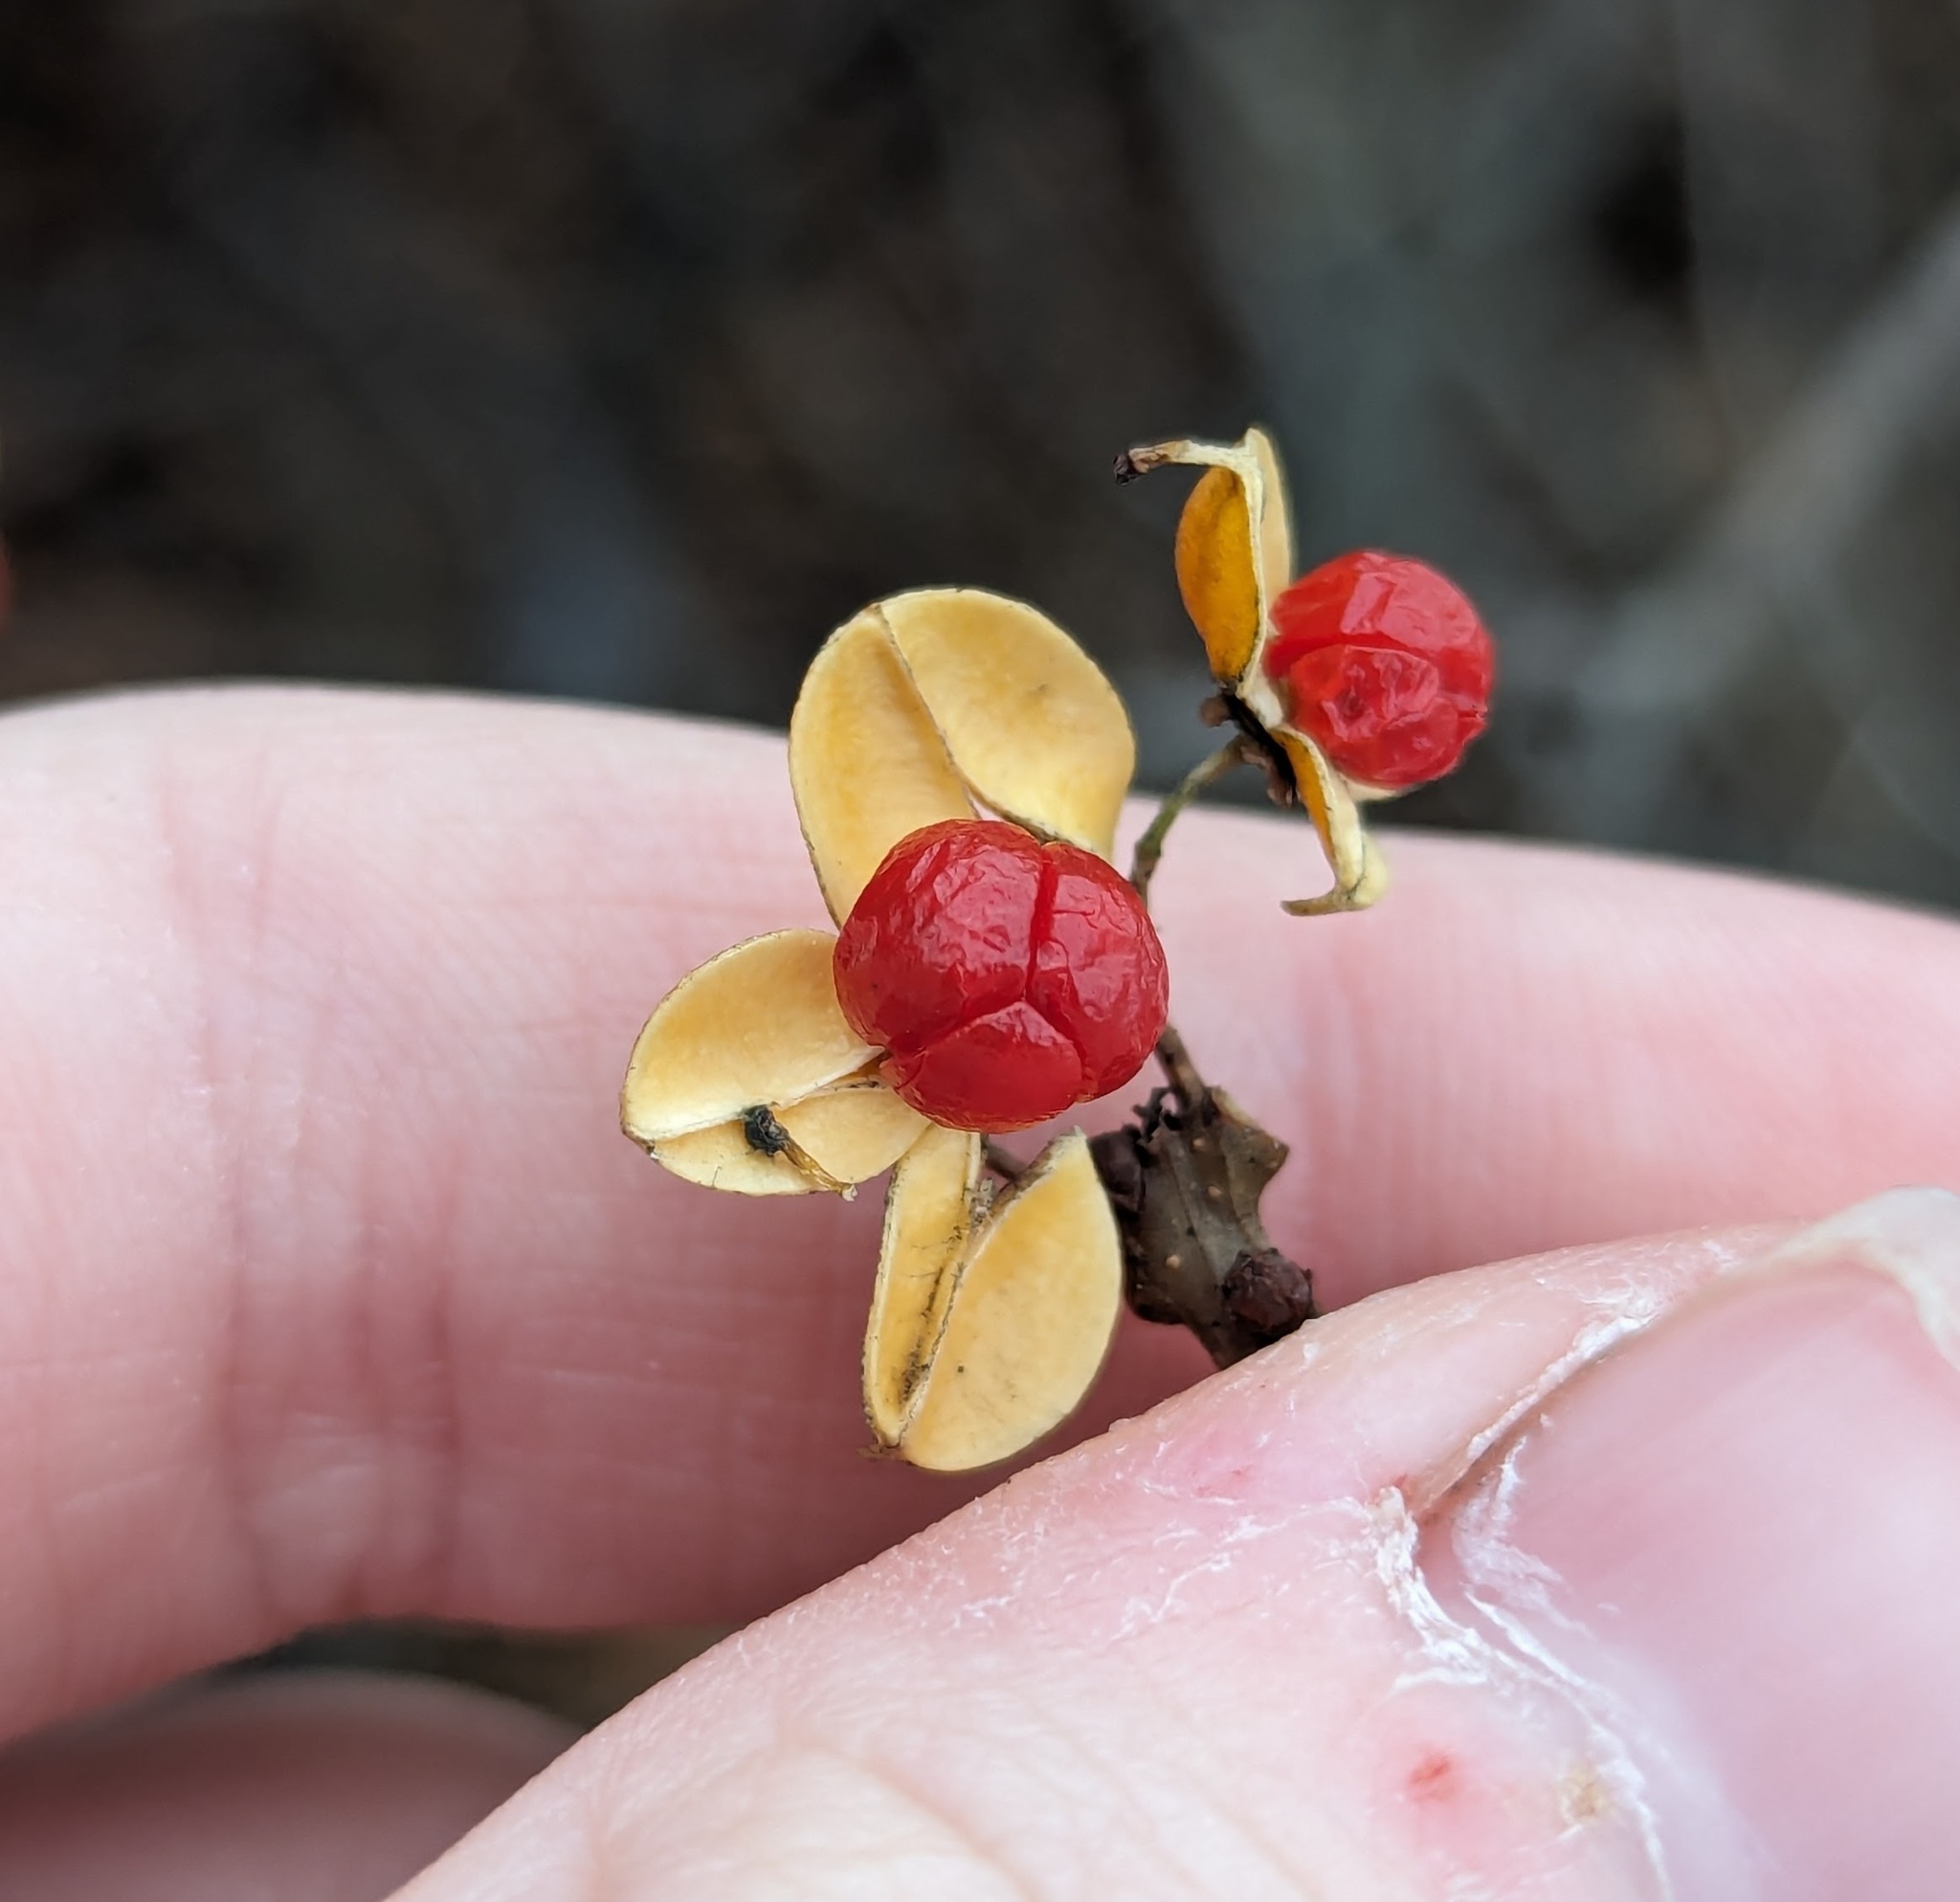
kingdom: Plantae
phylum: Tracheophyta
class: Magnoliopsida
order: Celastrales
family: Celastraceae
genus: Celastrus
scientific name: Celastrus orbiculatus
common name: Oriental bittersweet
